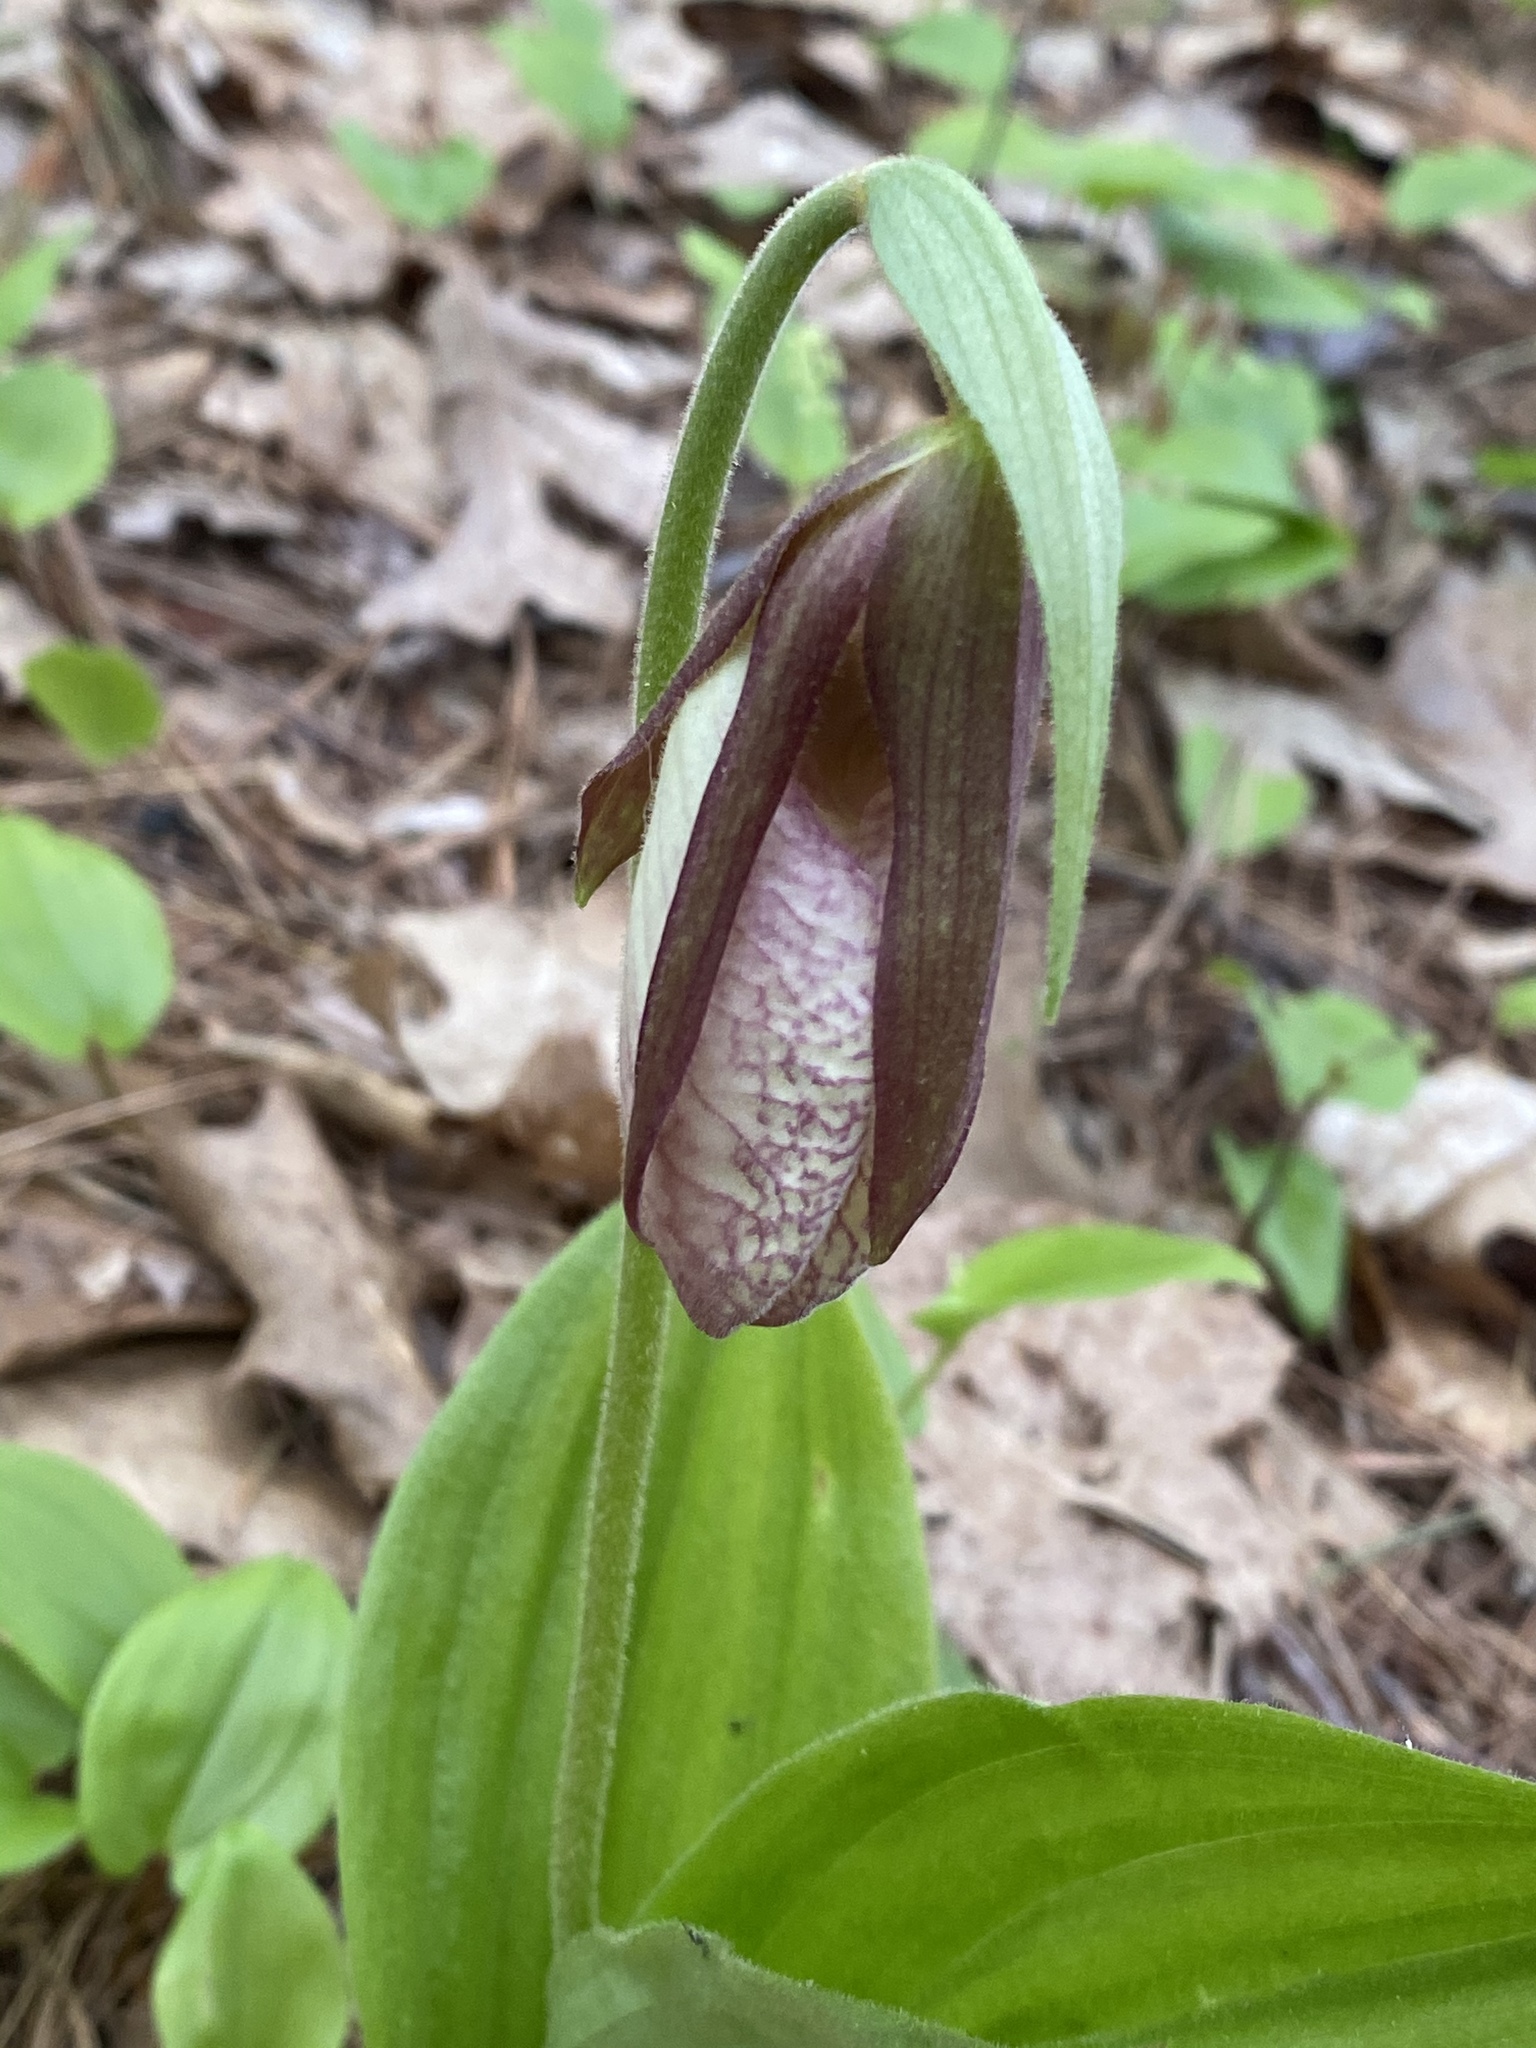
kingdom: Plantae
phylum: Tracheophyta
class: Liliopsida
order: Asparagales
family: Orchidaceae
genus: Cypripedium
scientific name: Cypripedium acaule
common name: Pink lady's-slipper
